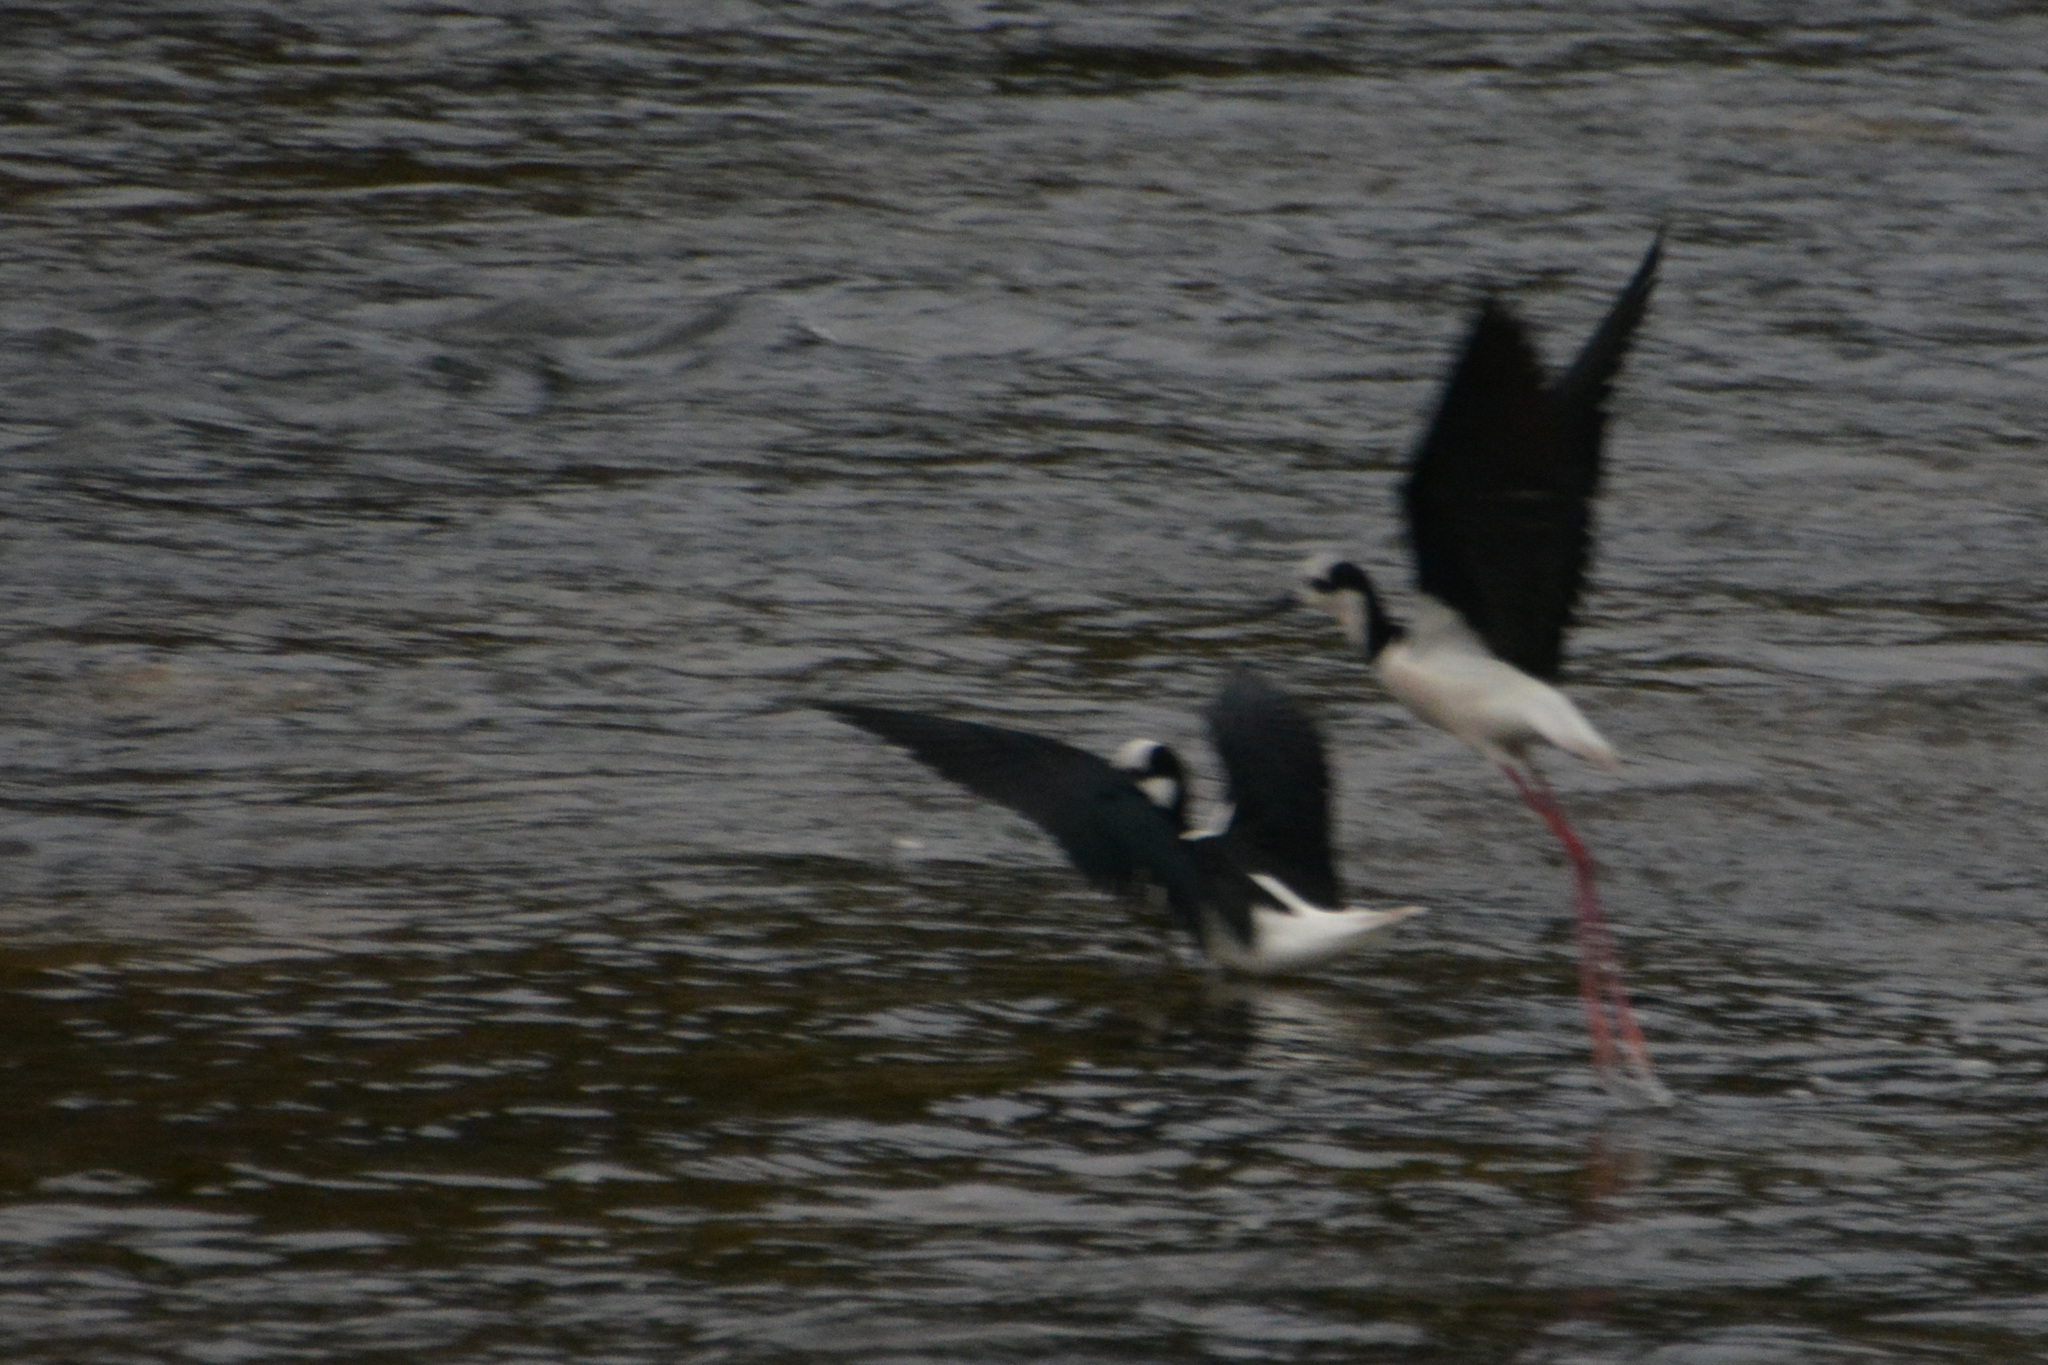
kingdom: Animalia
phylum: Chordata
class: Aves
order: Charadriiformes
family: Recurvirostridae
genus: Himantopus
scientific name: Himantopus mexicanus
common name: Black-necked stilt
